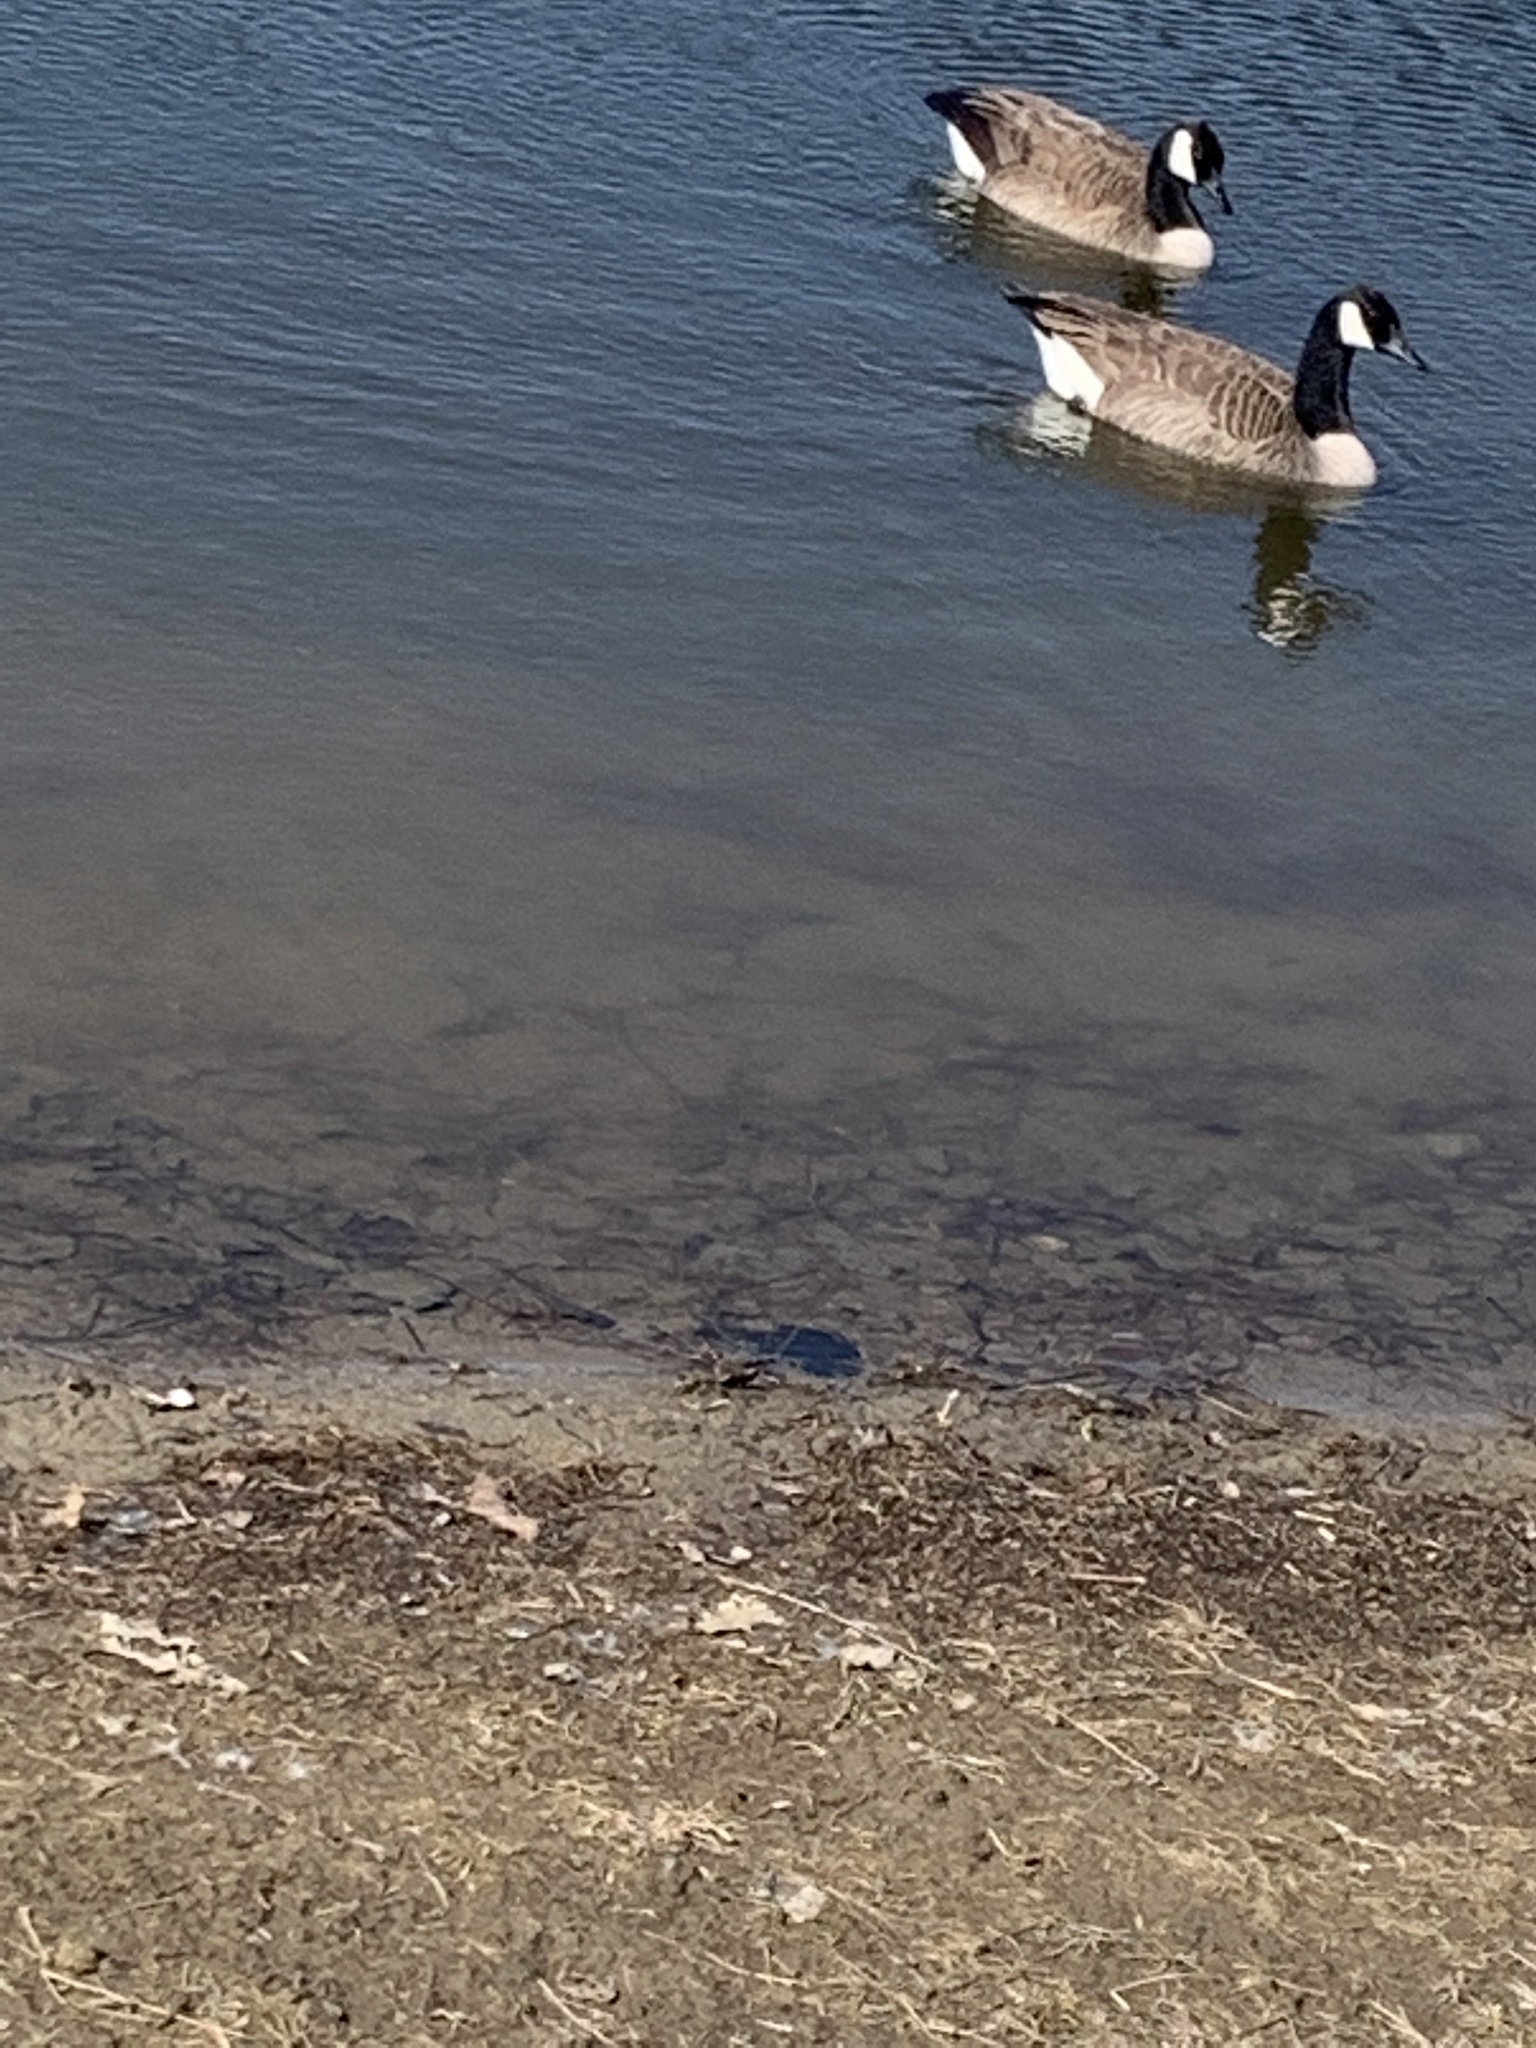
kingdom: Animalia
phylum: Chordata
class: Aves
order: Anseriformes
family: Anatidae
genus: Branta
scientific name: Branta canadensis
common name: Canada goose
